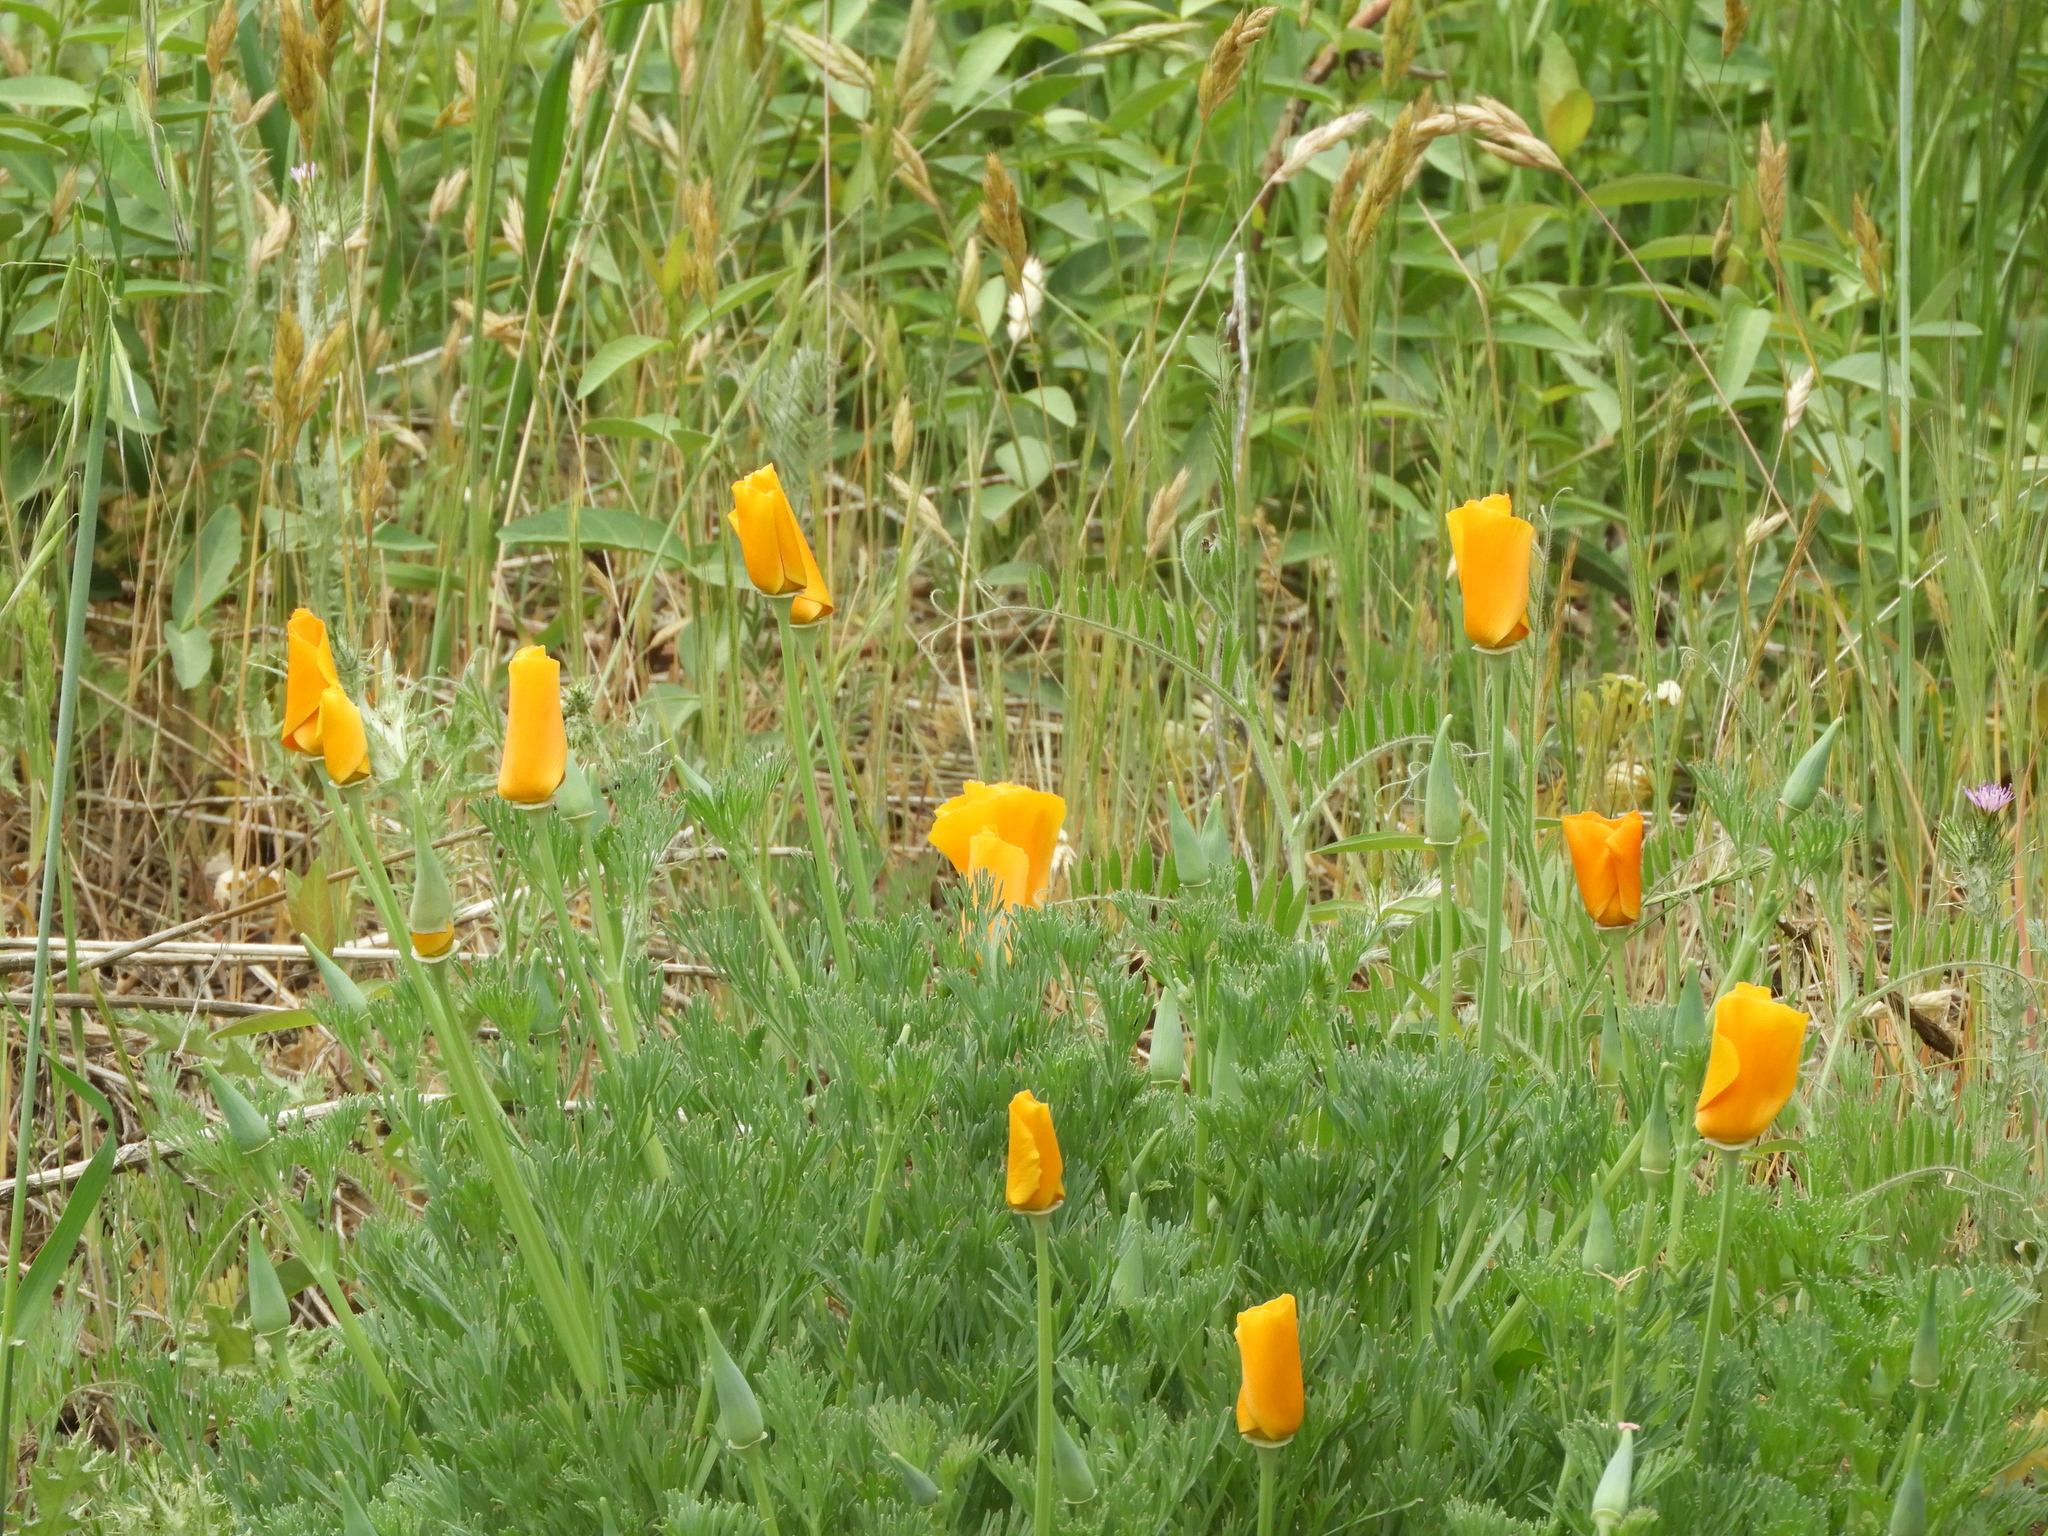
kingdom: Plantae
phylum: Tracheophyta
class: Magnoliopsida
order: Ranunculales
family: Papaveraceae
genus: Eschscholzia
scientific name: Eschscholzia californica
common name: California poppy
